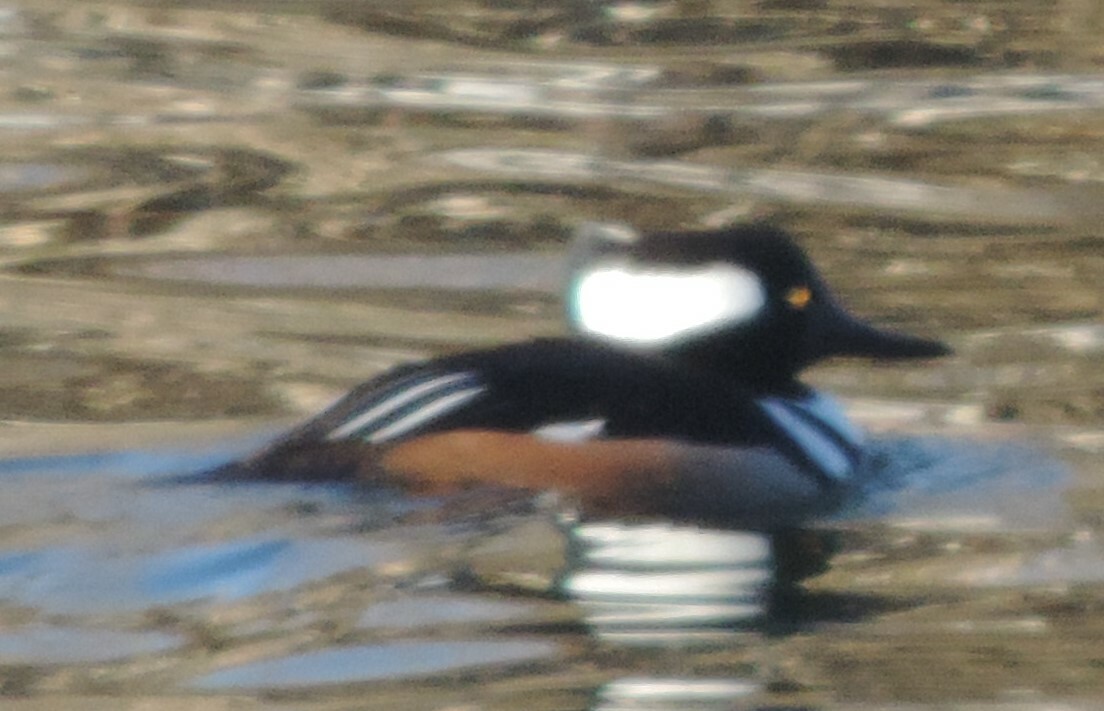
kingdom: Animalia
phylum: Chordata
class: Aves
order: Anseriformes
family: Anatidae
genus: Lophodytes
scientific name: Lophodytes cucullatus
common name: Hooded merganser
